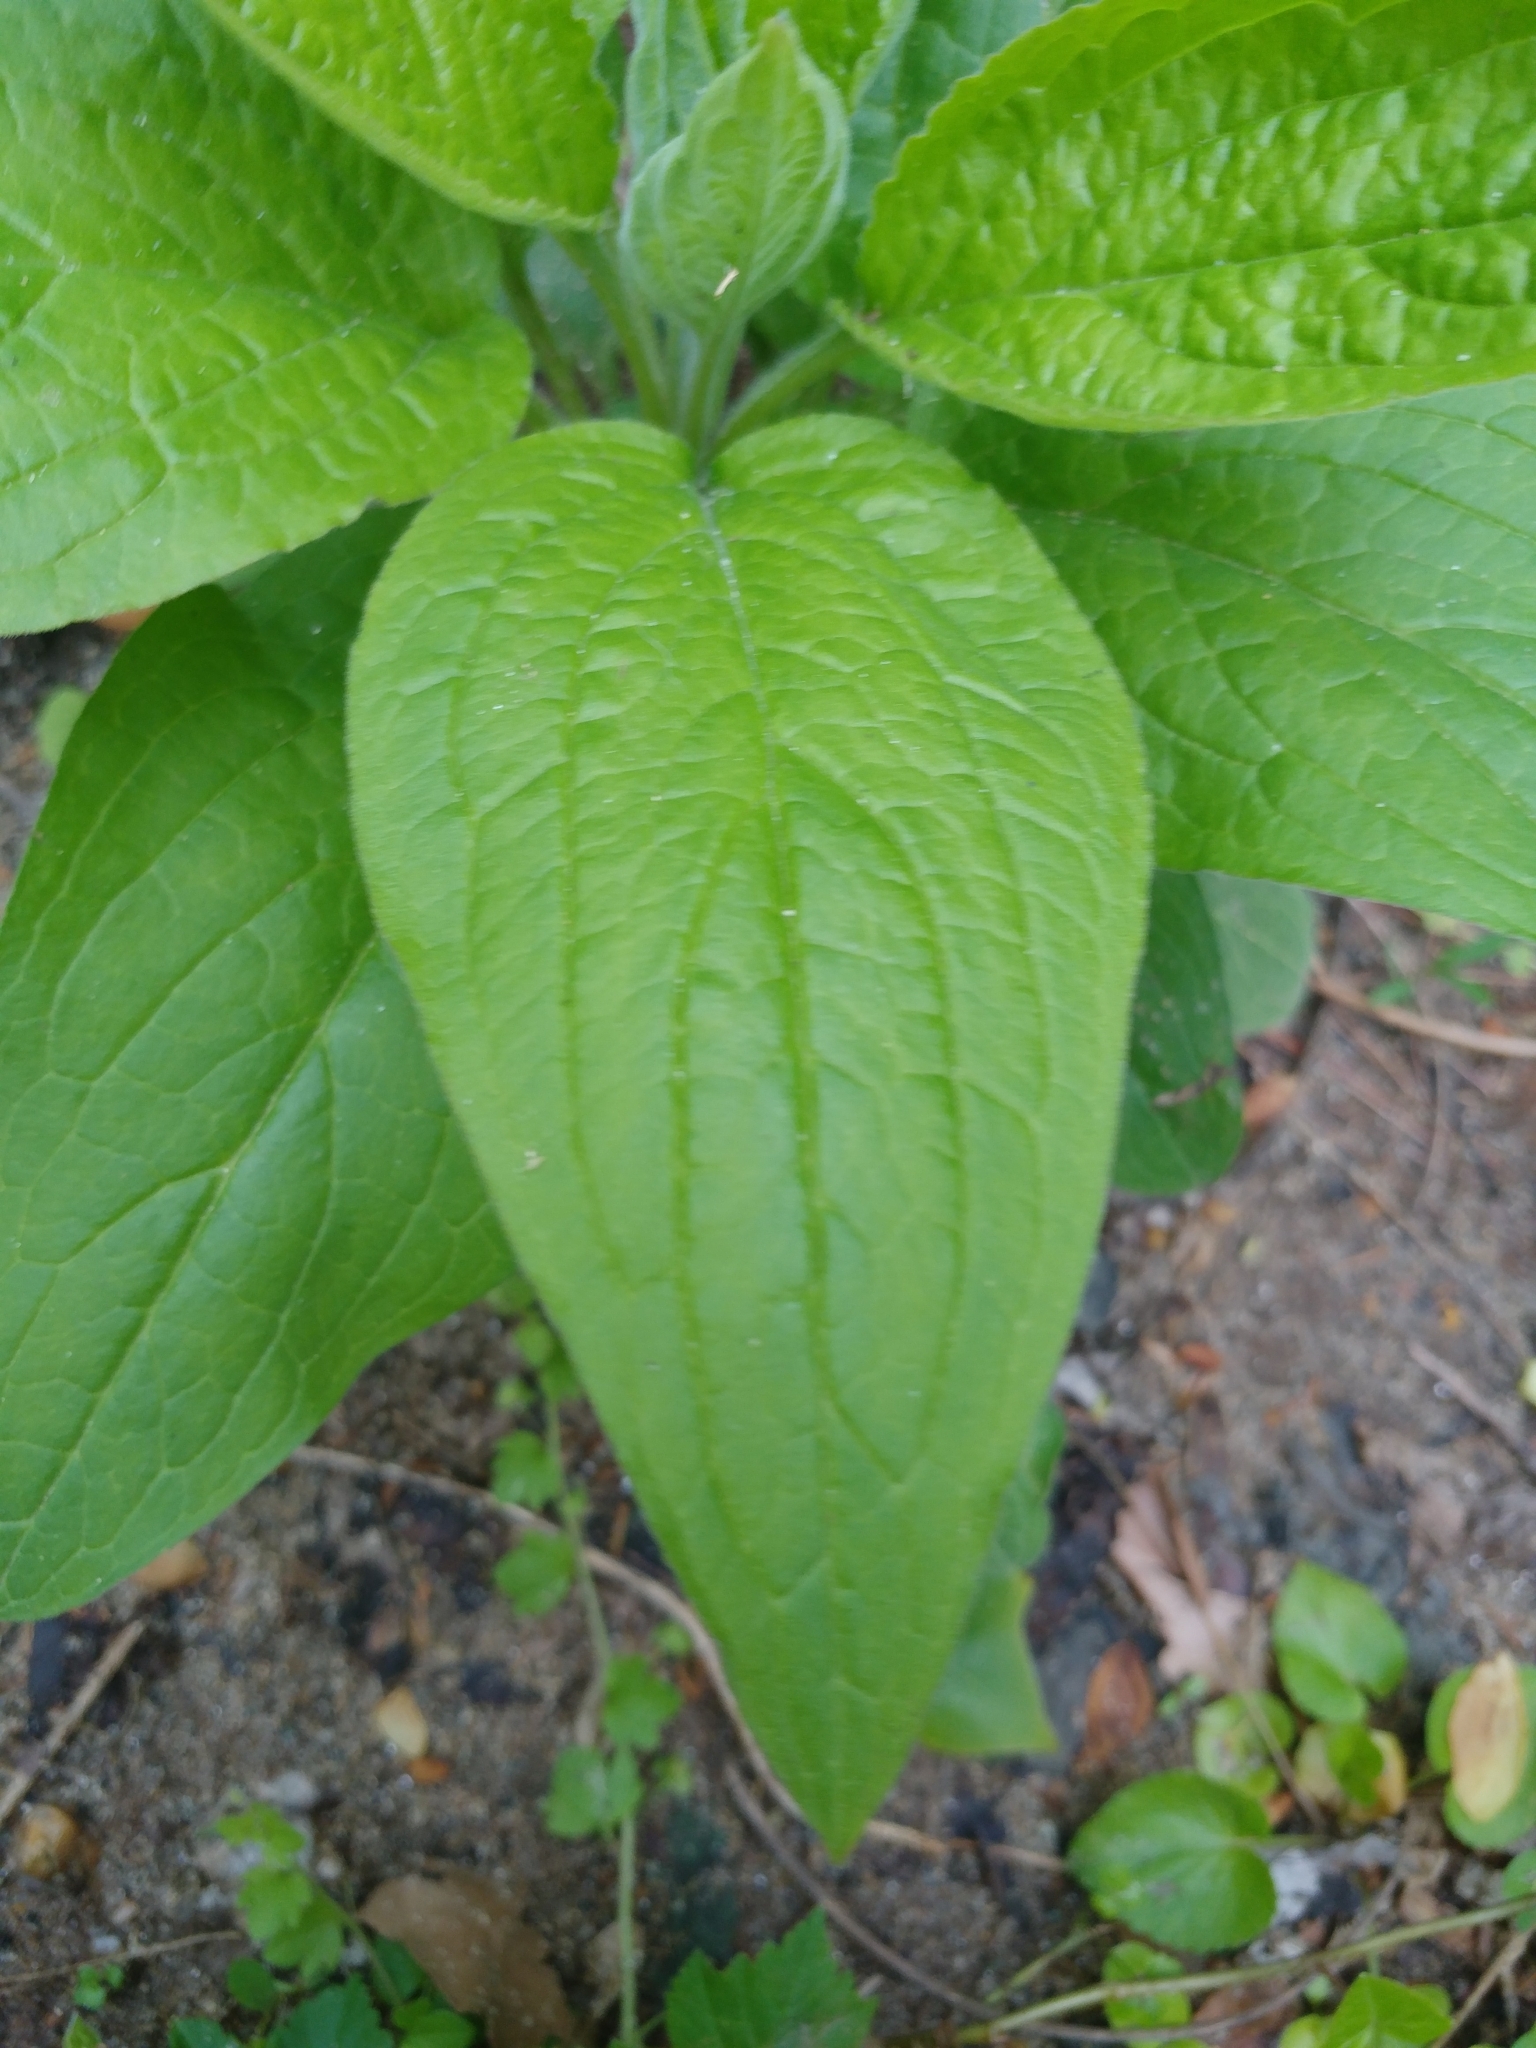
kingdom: Plantae
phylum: Tracheophyta
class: Magnoliopsida
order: Boraginales
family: Boraginaceae
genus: Hackelia
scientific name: Hackelia virginiana
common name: Beggar's-lice
